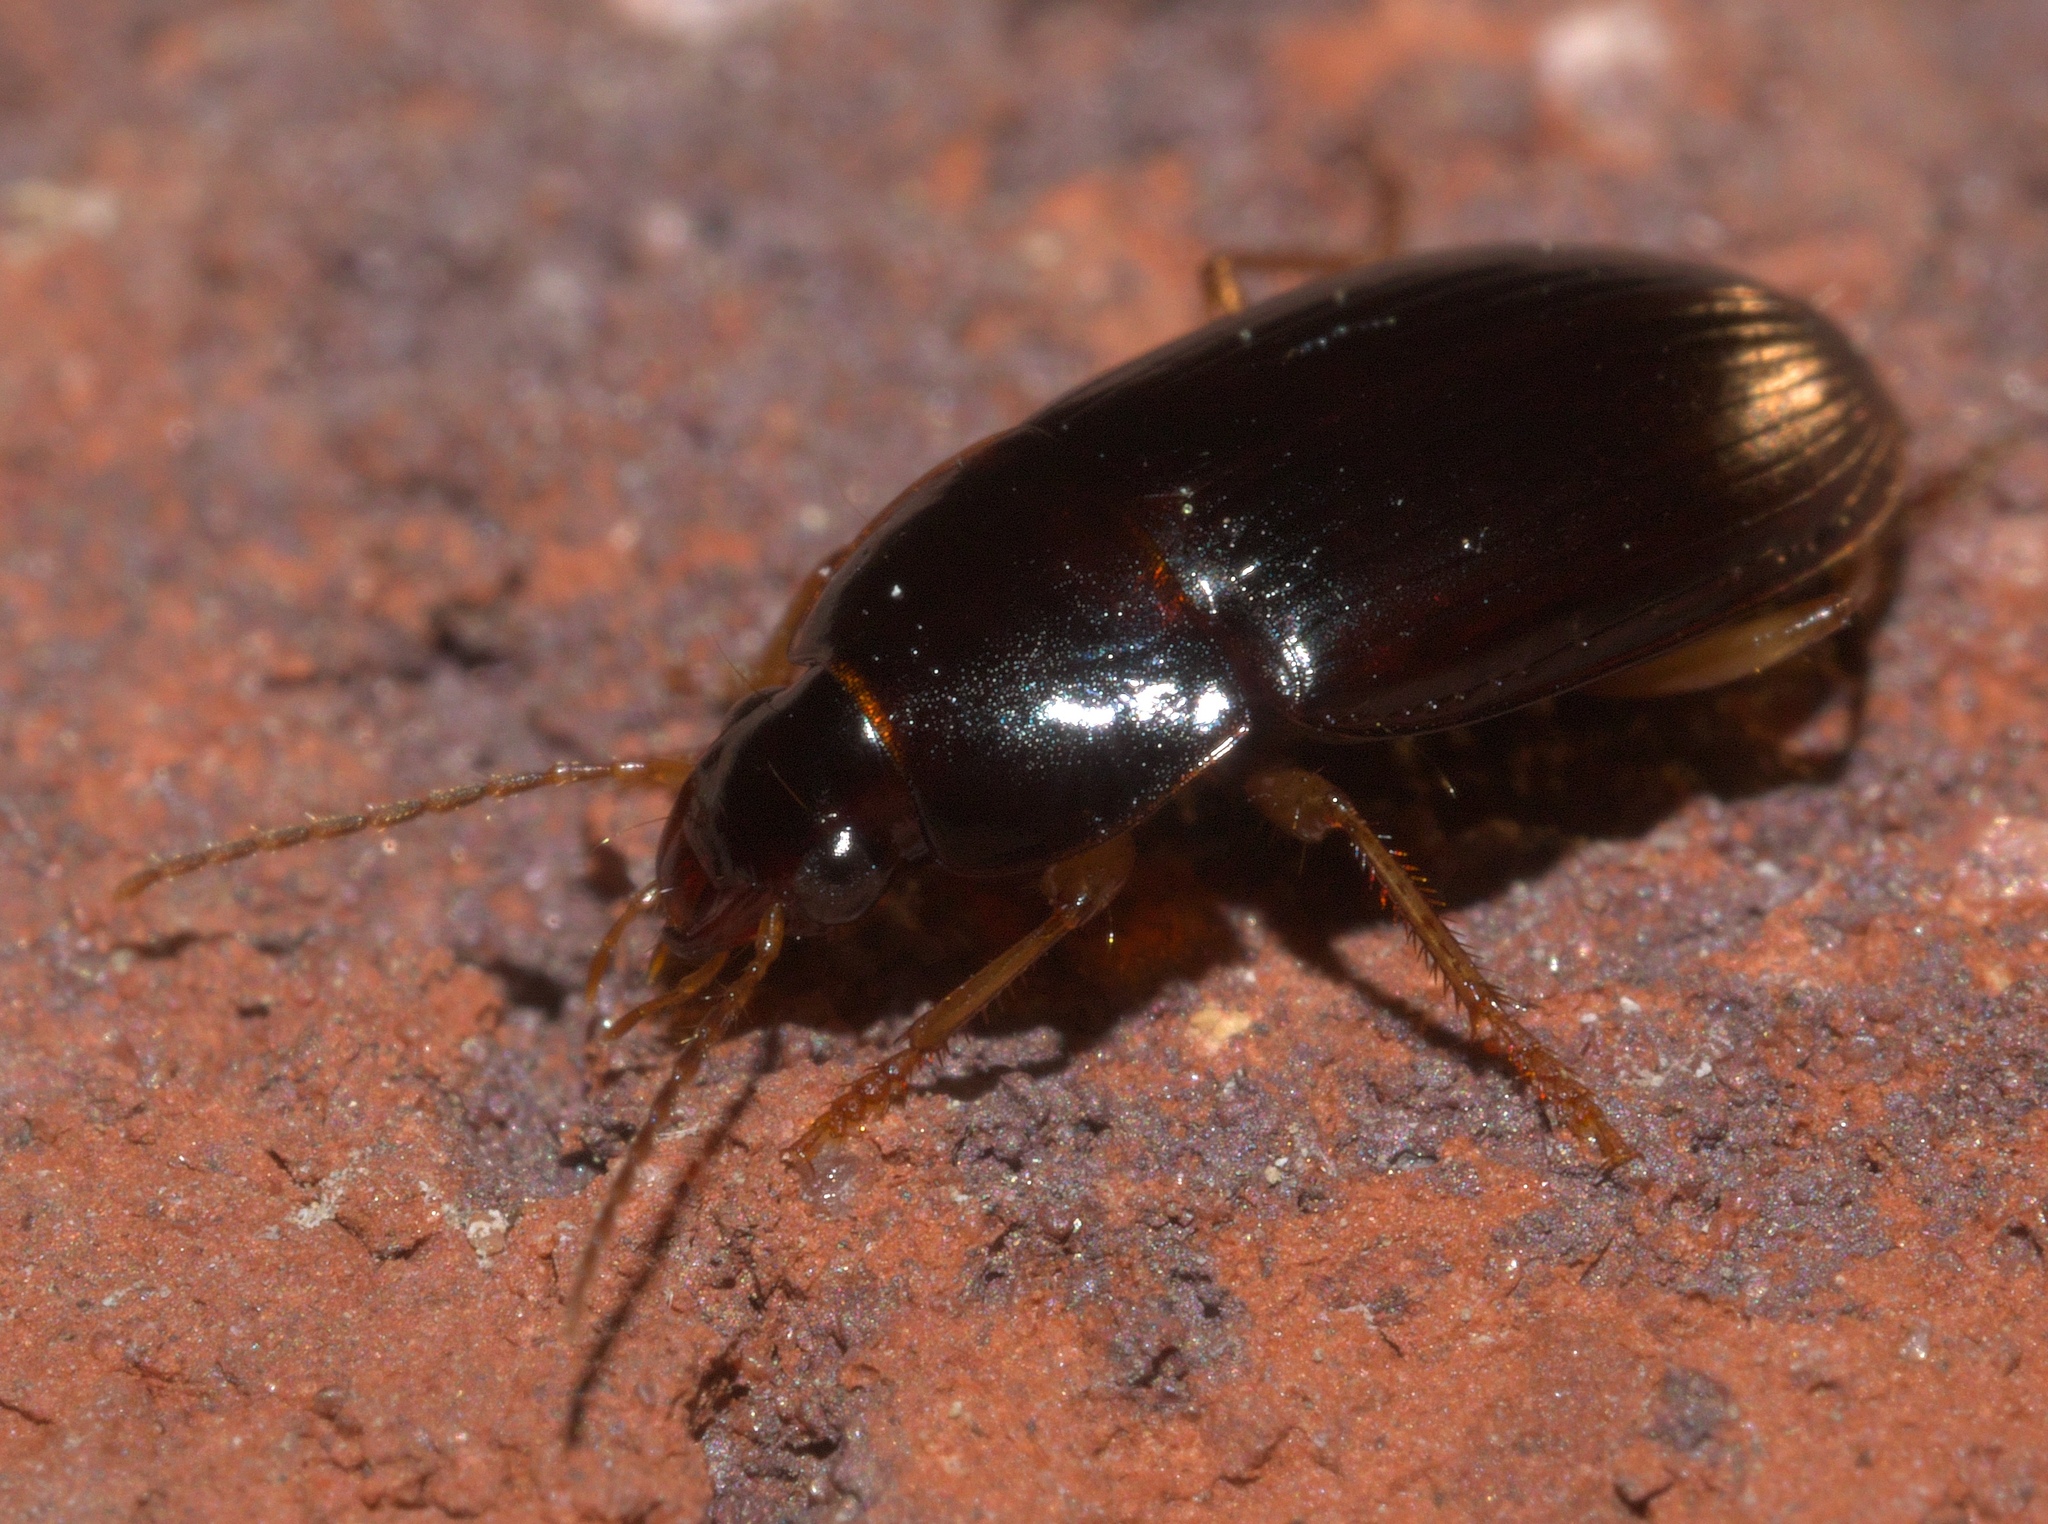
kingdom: Animalia
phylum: Arthropoda
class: Insecta
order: Coleoptera
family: Carabidae
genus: Notiobia
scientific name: Notiobia sayi
